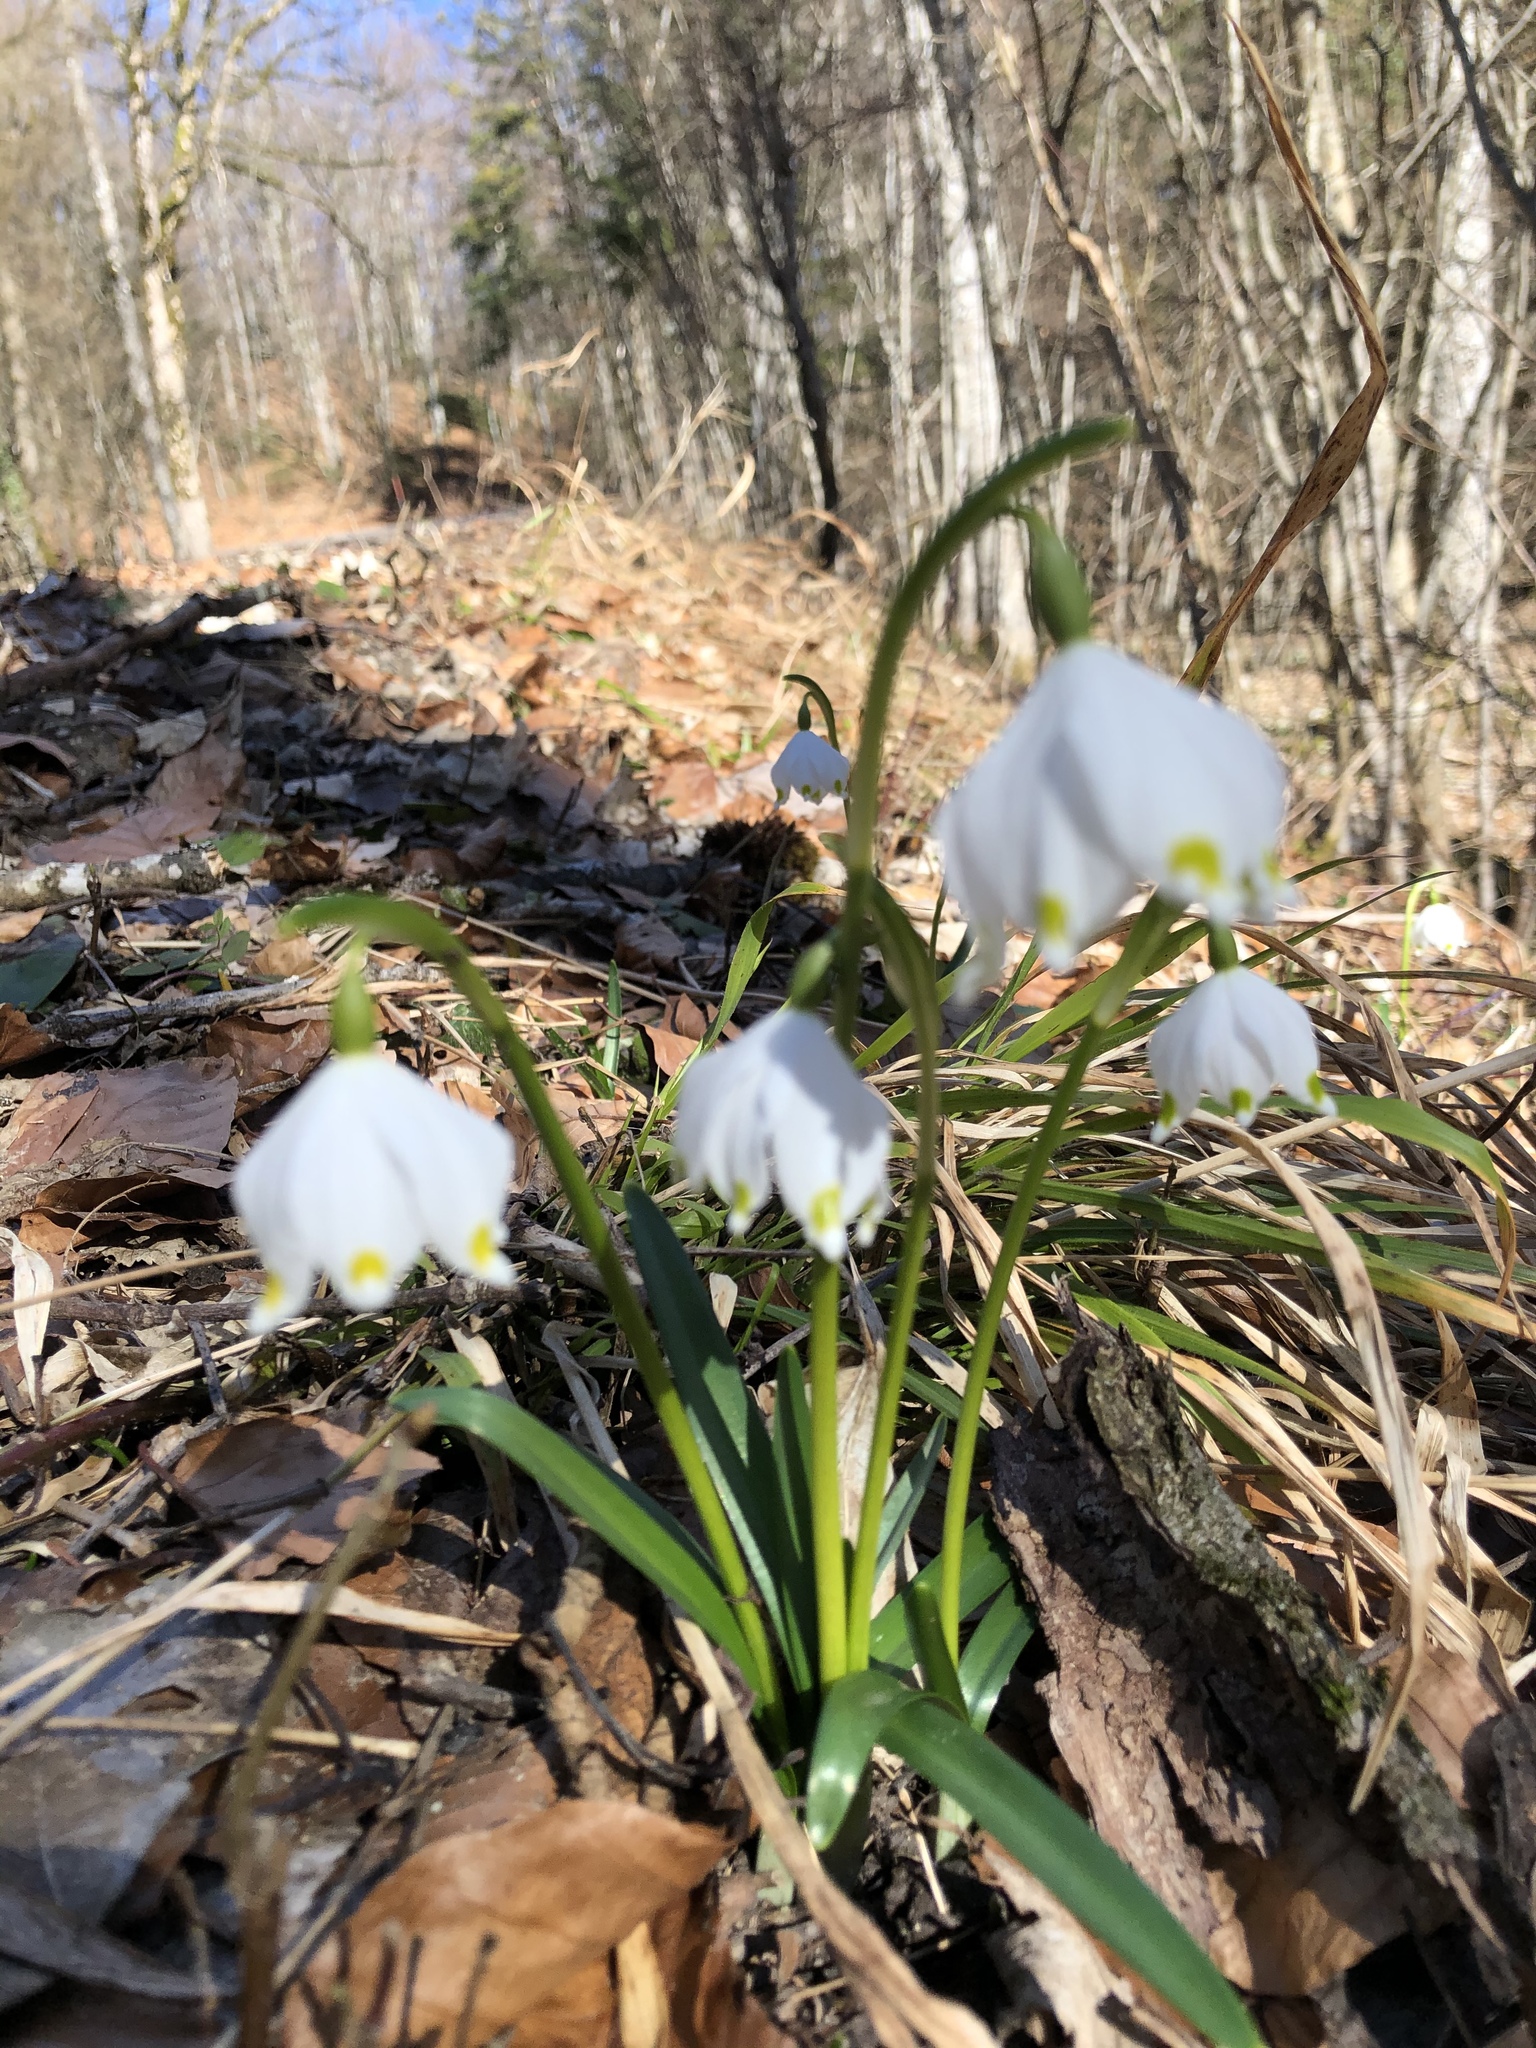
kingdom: Plantae
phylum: Tracheophyta
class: Liliopsida
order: Asparagales
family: Amaryllidaceae
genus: Leucojum
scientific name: Leucojum vernum
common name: Spring snowflake
